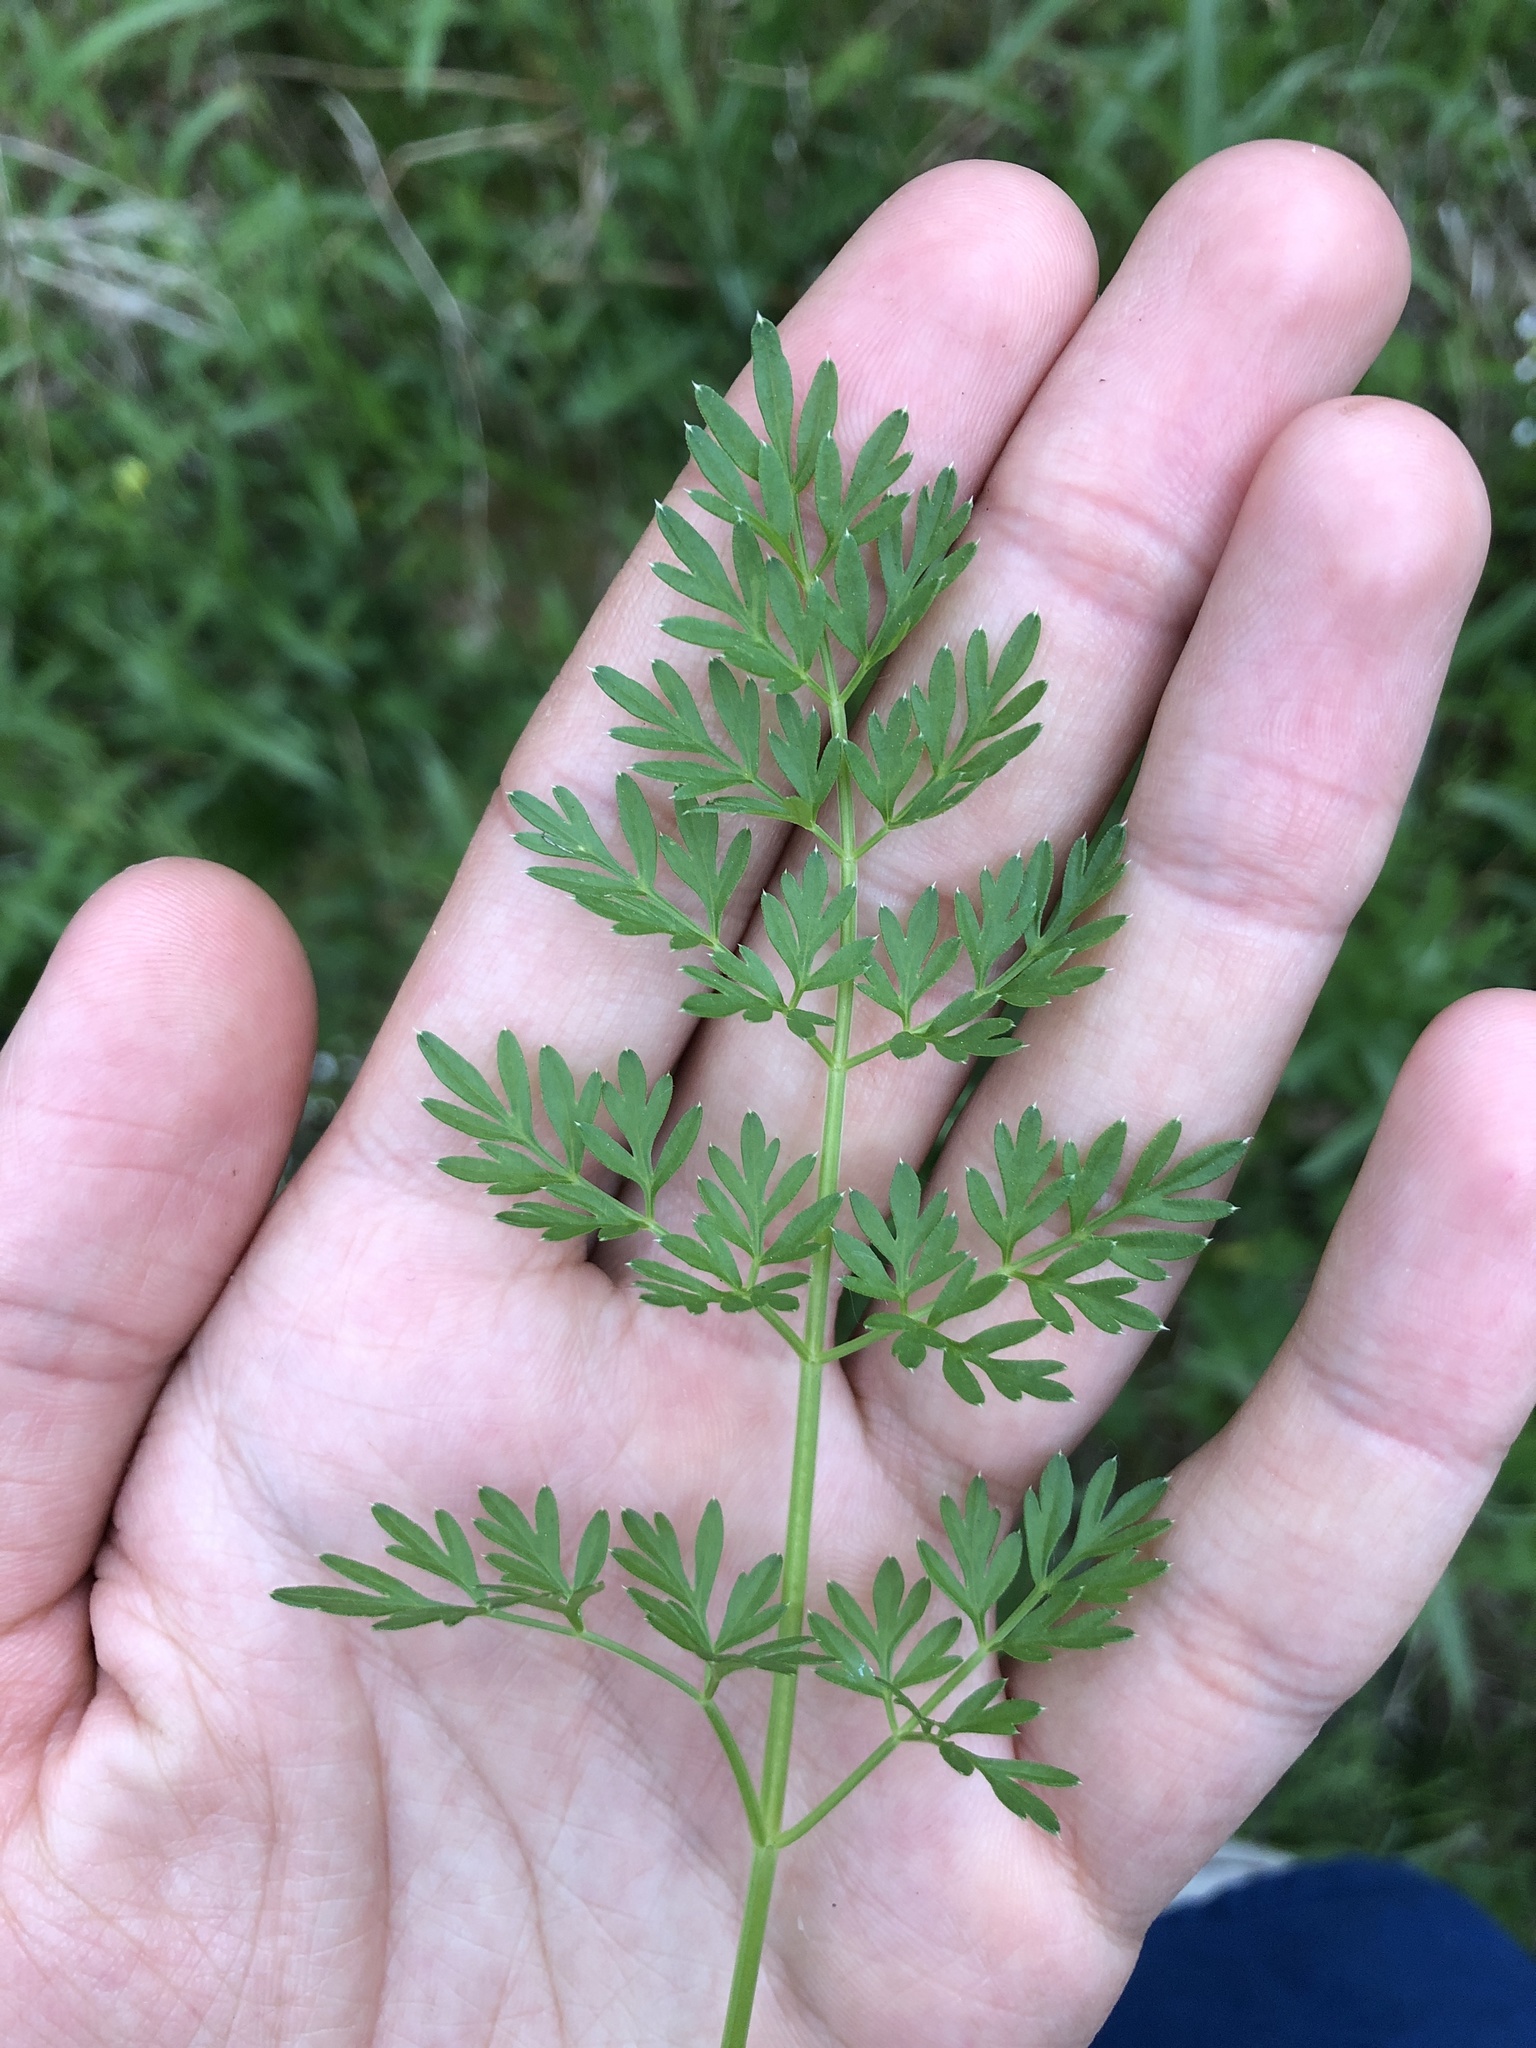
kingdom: Plantae
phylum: Tracheophyta
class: Magnoliopsida
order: Apiales
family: Apiaceae
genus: Selinum
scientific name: Selinum carvifolia
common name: Cambridge milk-parsley
